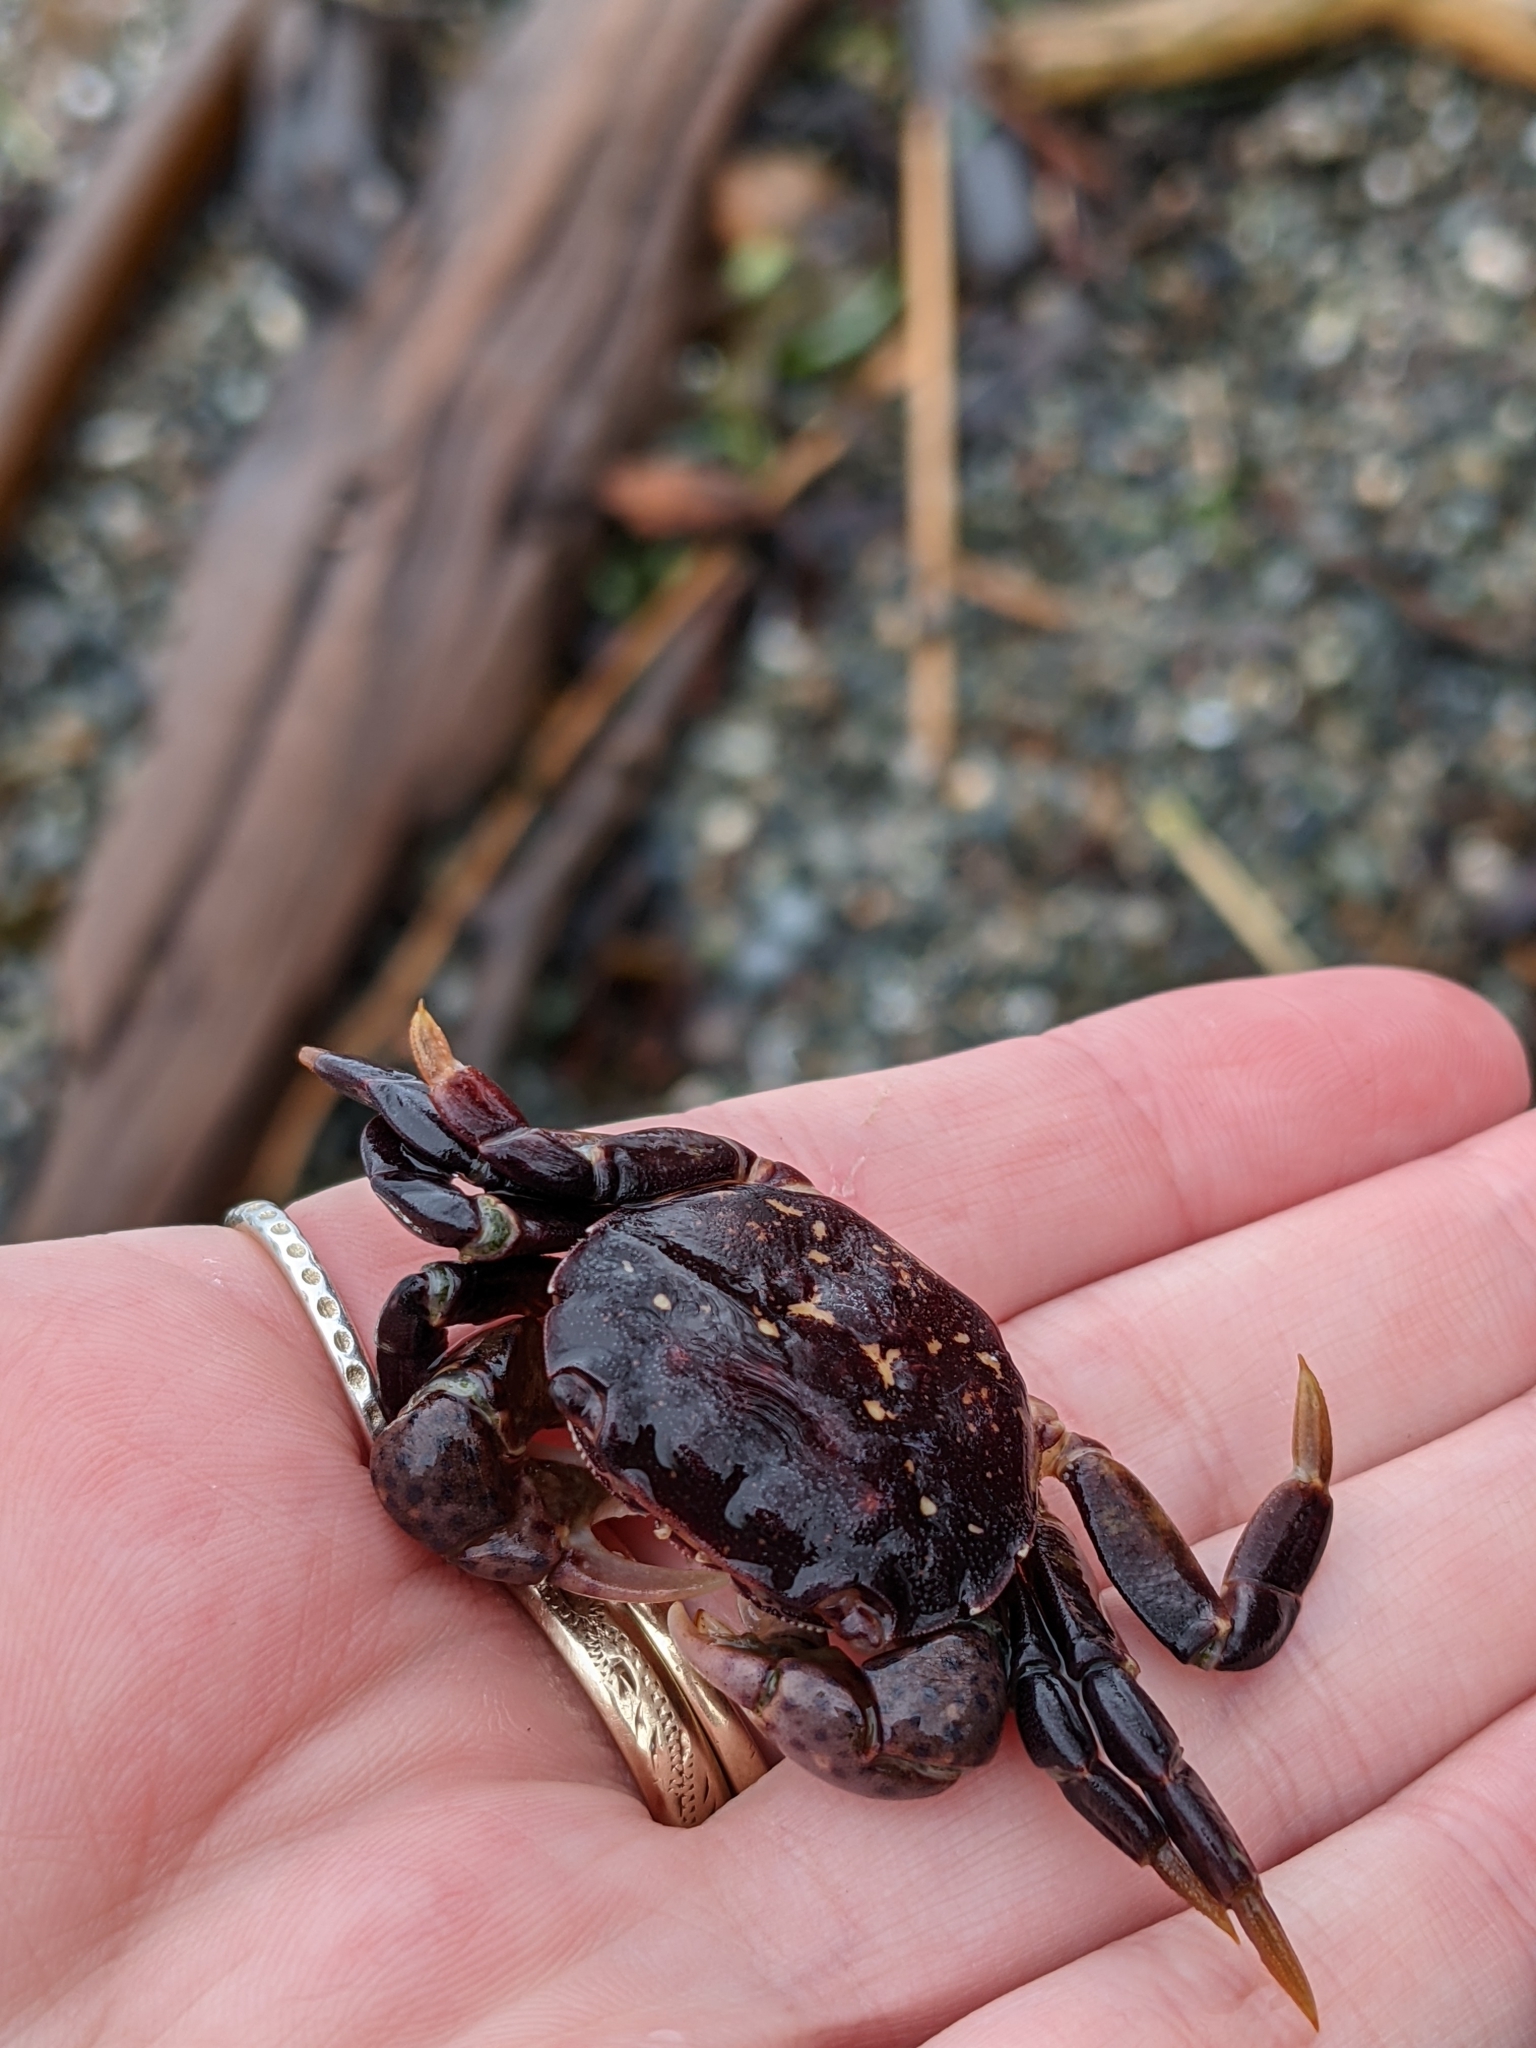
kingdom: Animalia
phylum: Arthropoda
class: Malacostraca
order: Decapoda
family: Varunidae
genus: Hemigrapsus
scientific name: Hemigrapsus nudus
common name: Purple shore crab
